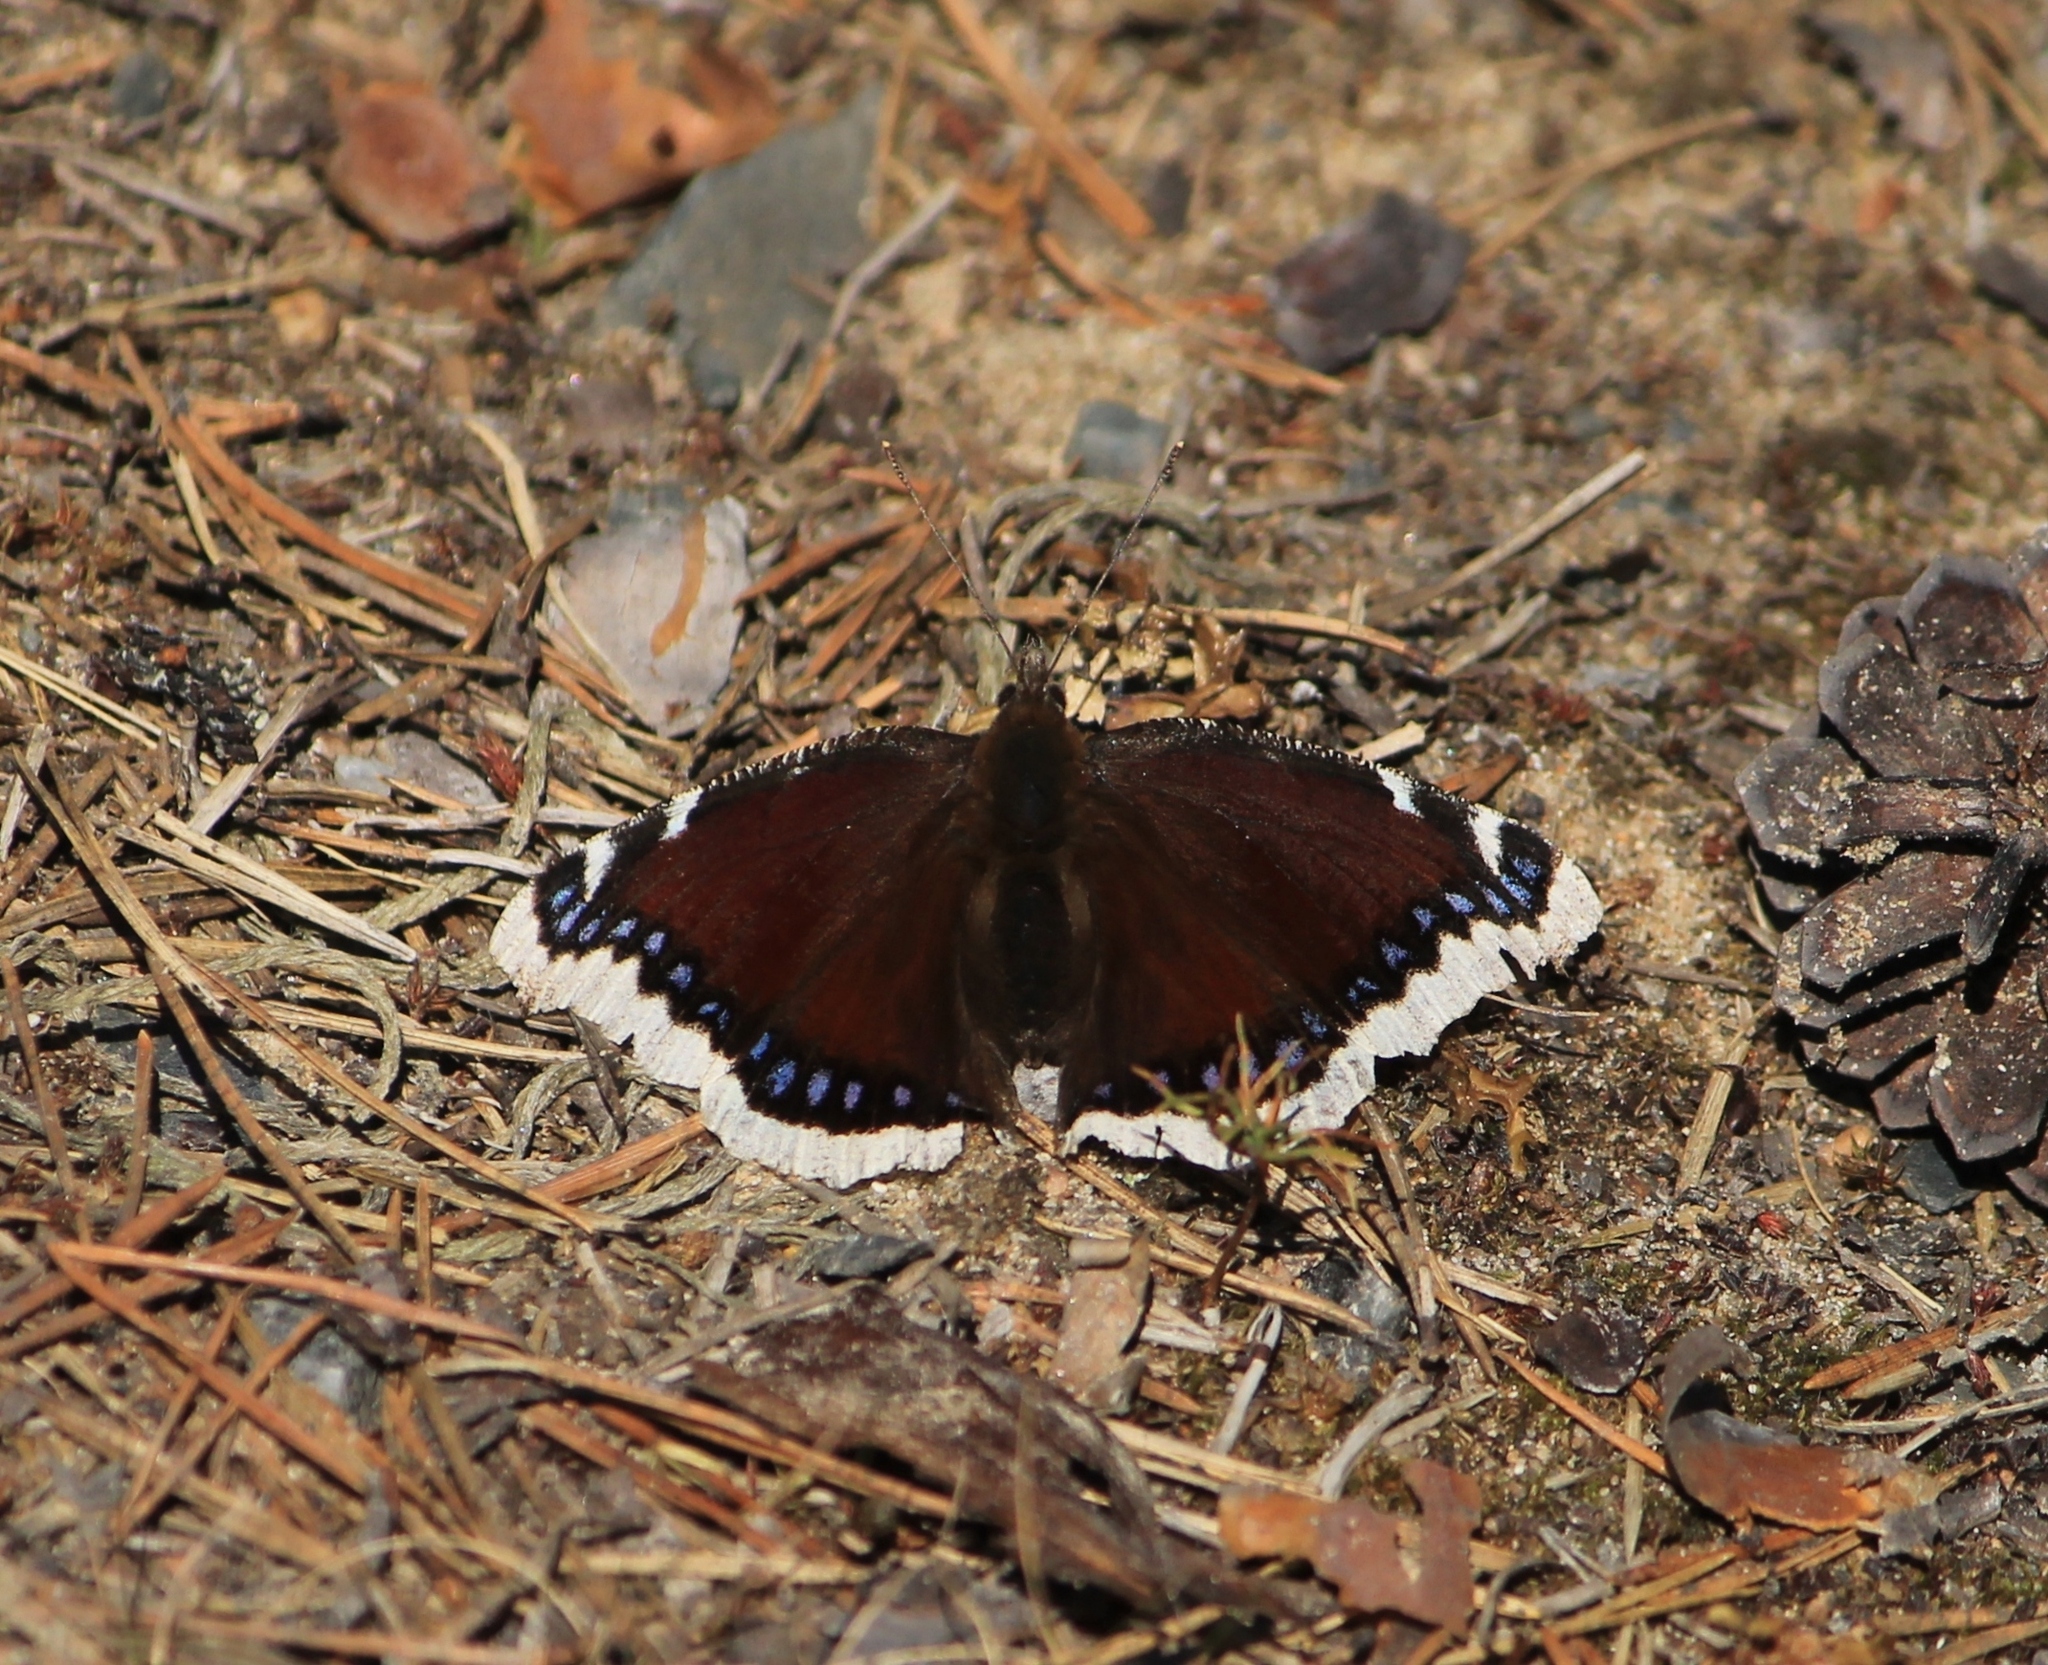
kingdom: Animalia
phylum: Arthropoda
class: Insecta
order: Lepidoptera
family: Nymphalidae
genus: Nymphalis
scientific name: Nymphalis antiopa
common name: Camberwell beauty
